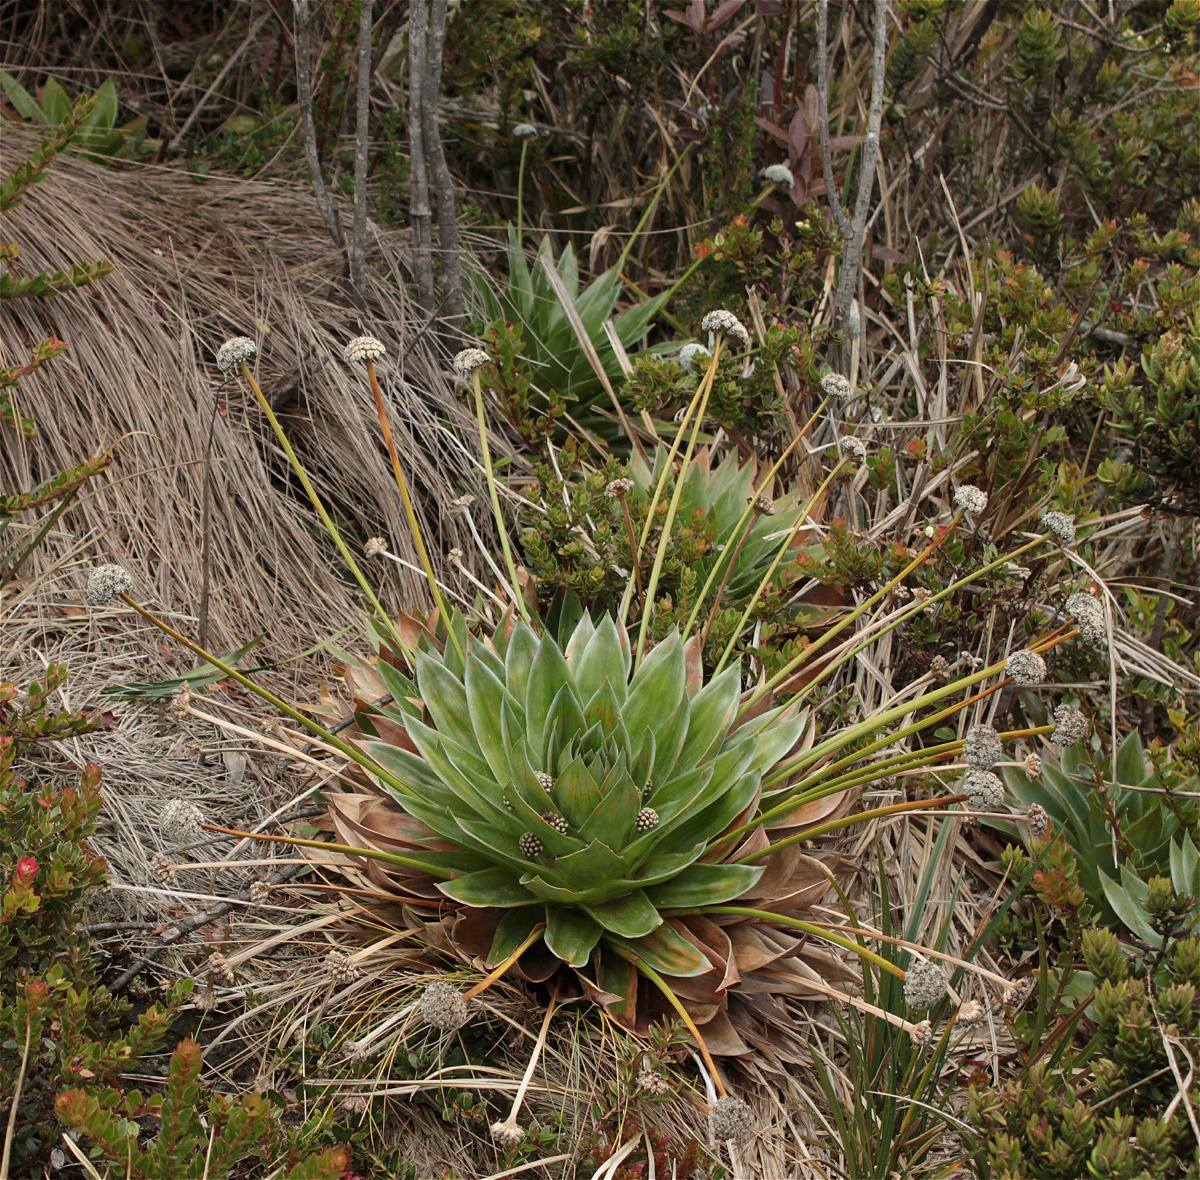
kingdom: Plantae
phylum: Tracheophyta
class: Liliopsida
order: Poales
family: Eriocaulaceae
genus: Paepalanthus
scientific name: Paepalanthus alpinus
